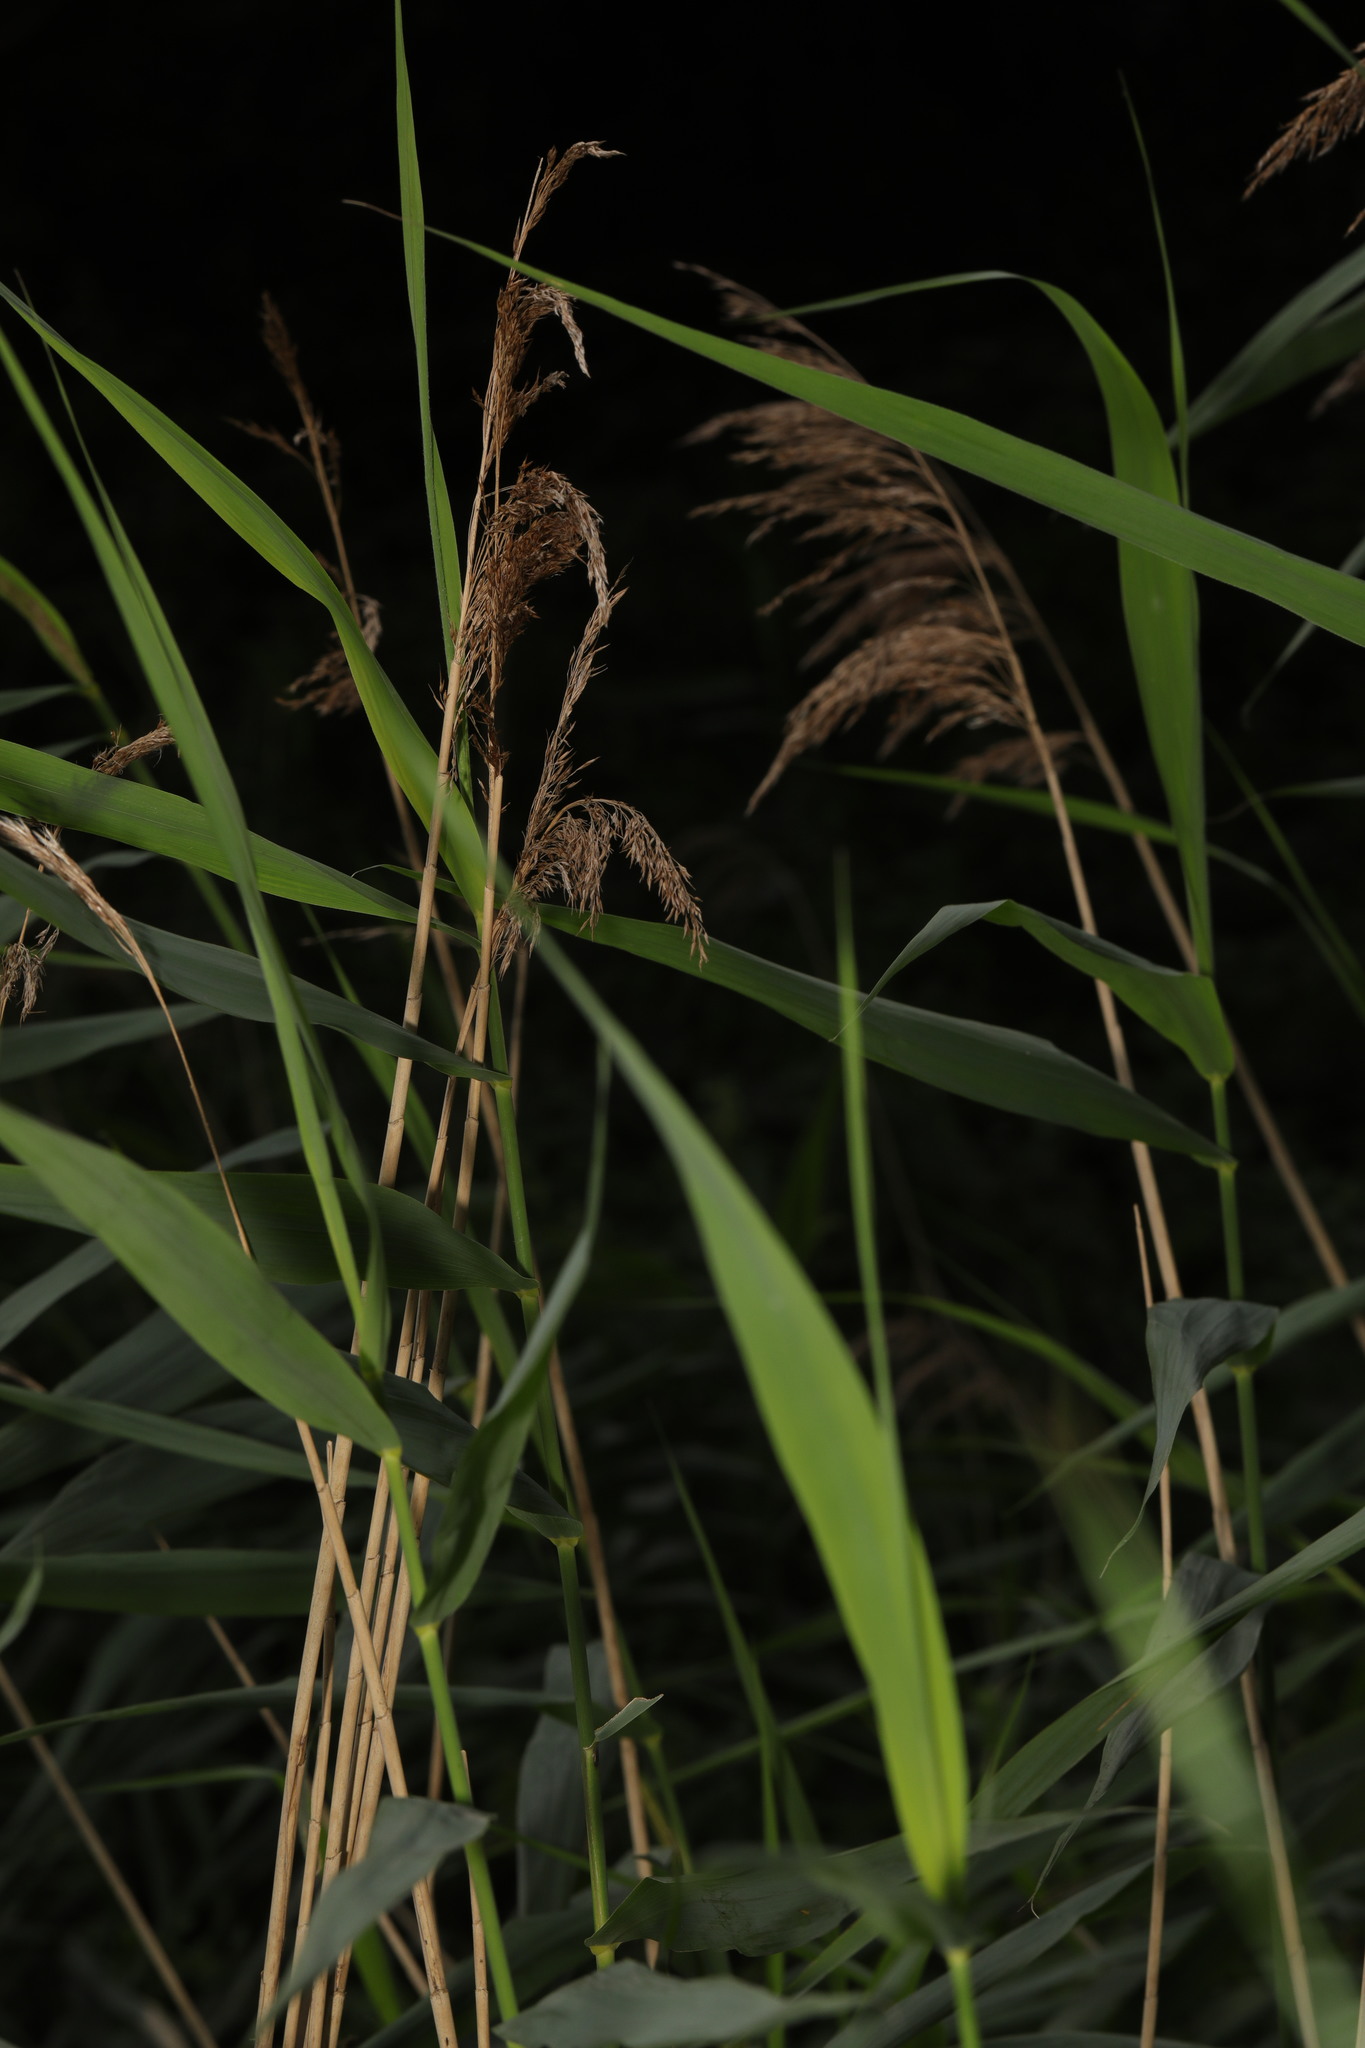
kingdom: Plantae
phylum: Tracheophyta
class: Liliopsida
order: Poales
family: Poaceae
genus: Phragmites
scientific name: Phragmites australis
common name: Common reed
